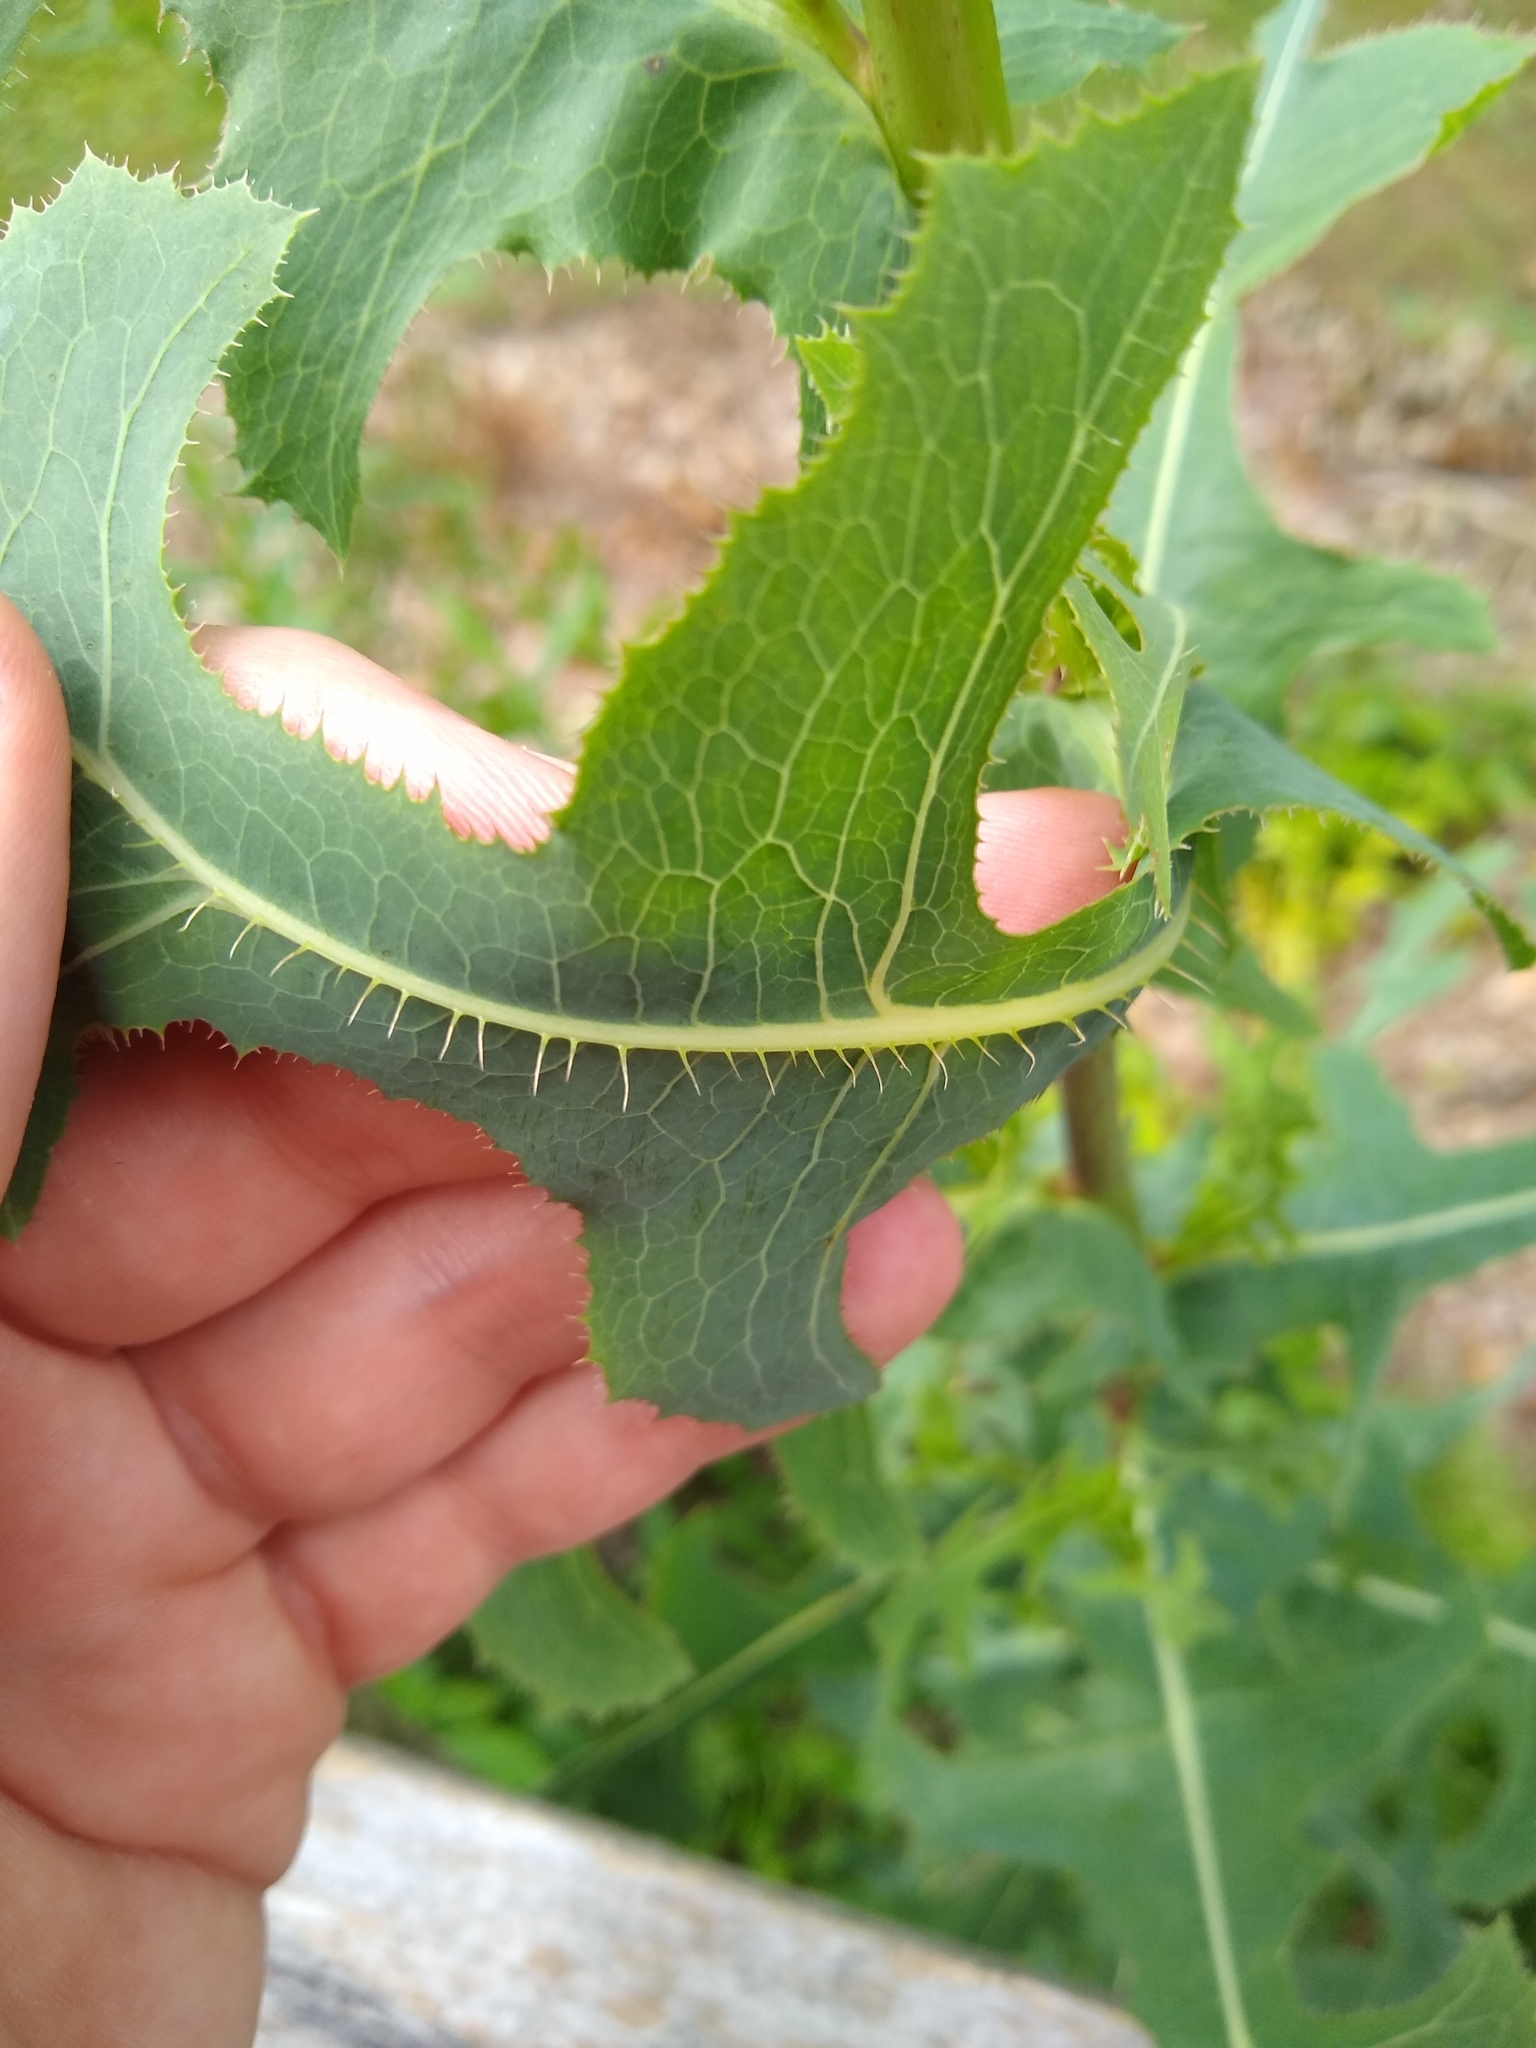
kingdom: Plantae
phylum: Tracheophyta
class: Magnoliopsida
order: Asterales
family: Asteraceae
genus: Lactuca
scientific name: Lactuca serriola
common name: Prickly lettuce
